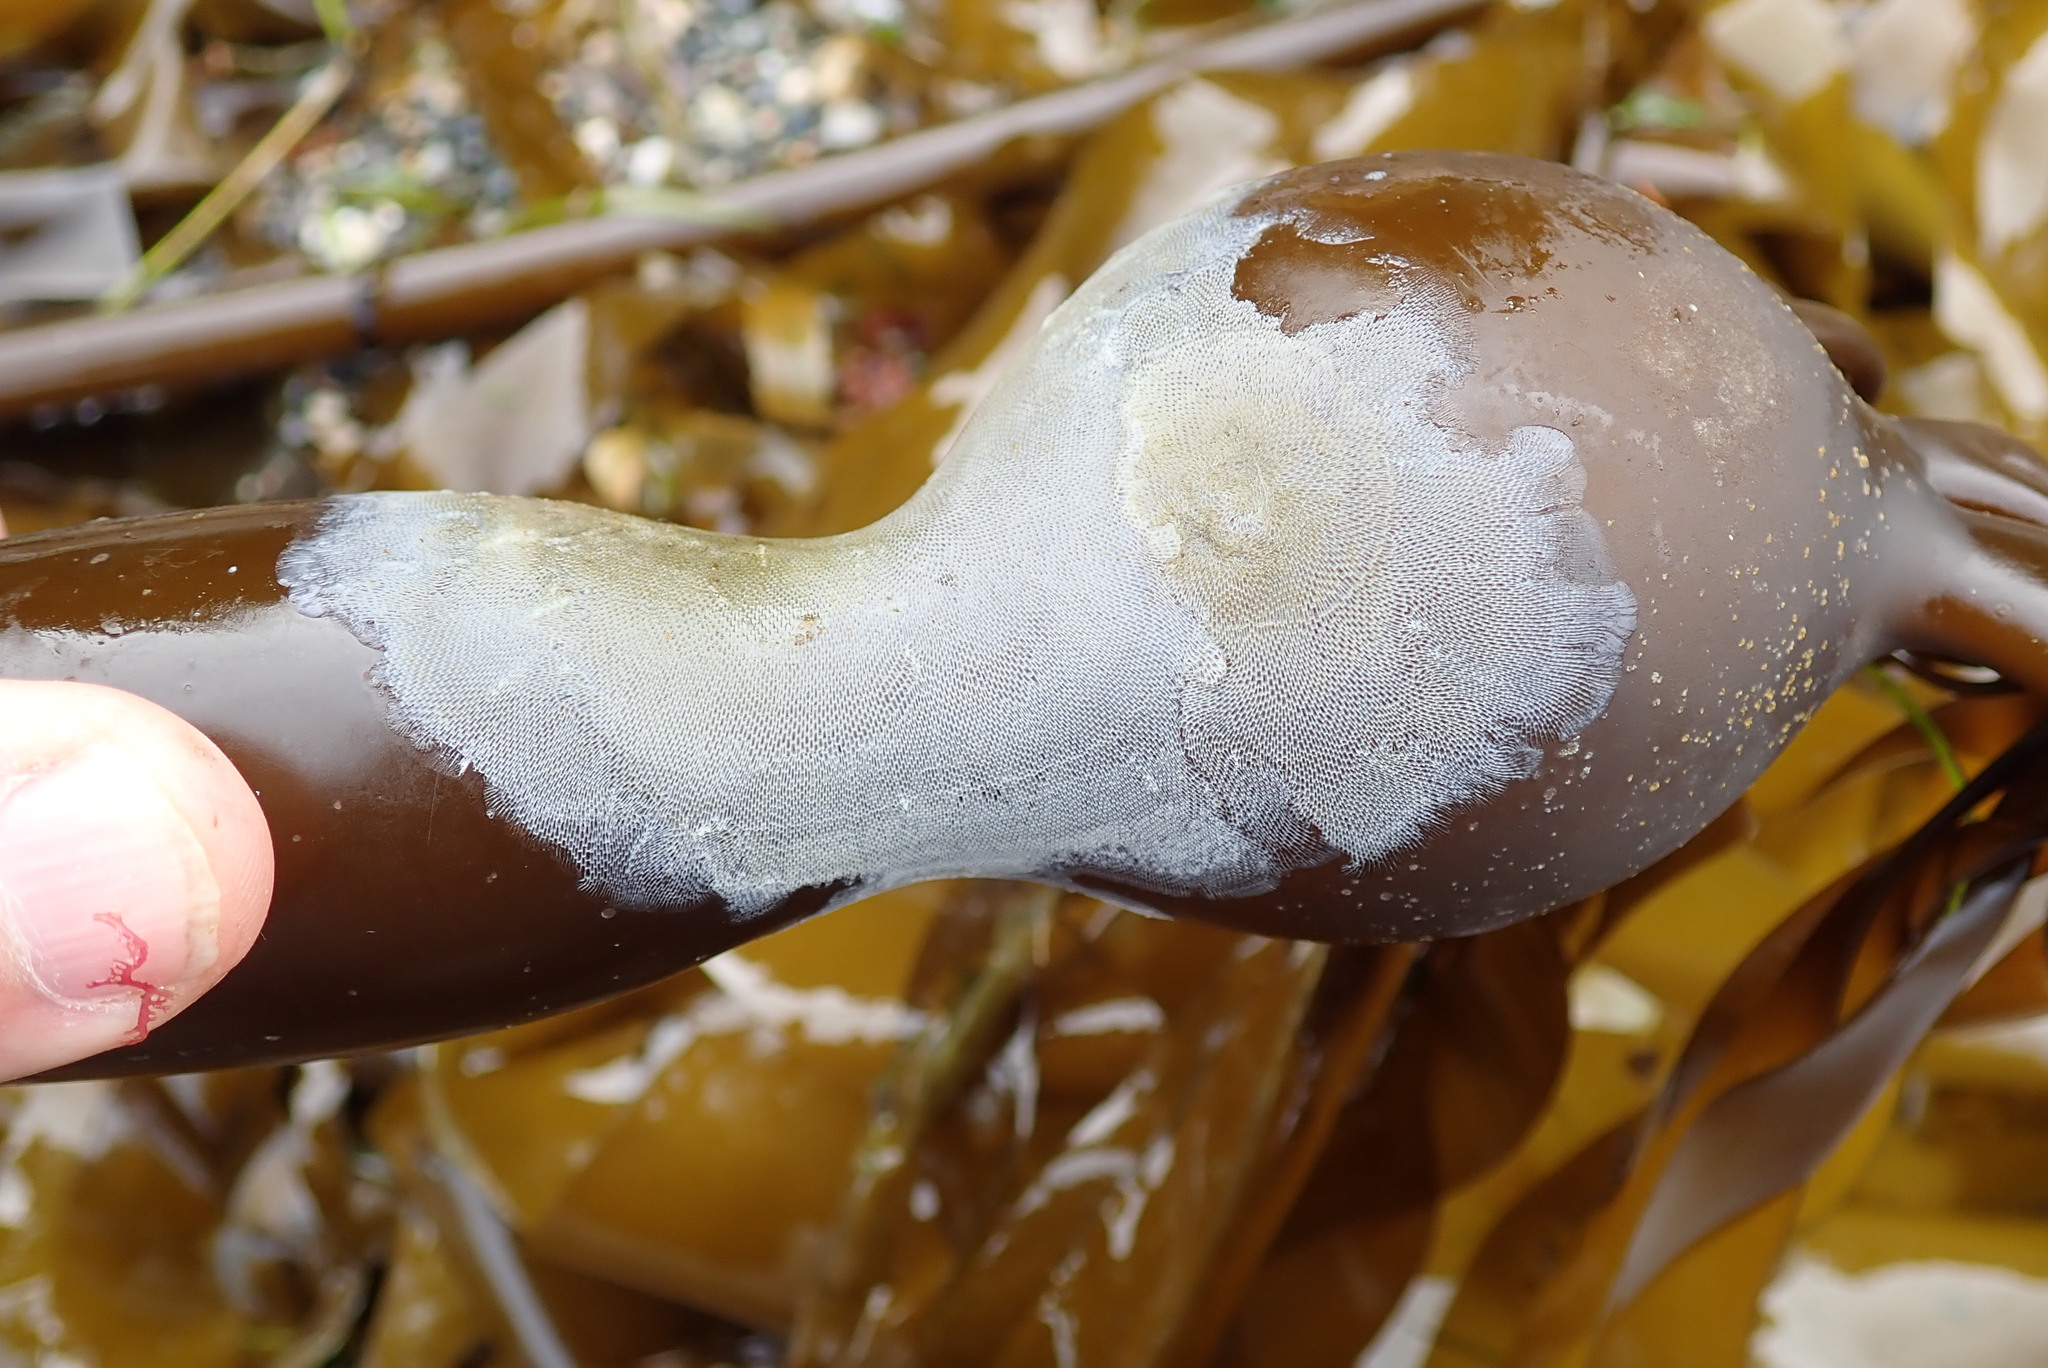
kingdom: Animalia
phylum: Bryozoa
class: Gymnolaemata
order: Cheilostomatida
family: Membraniporidae
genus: Membranipora
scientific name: Membranipora villosa
